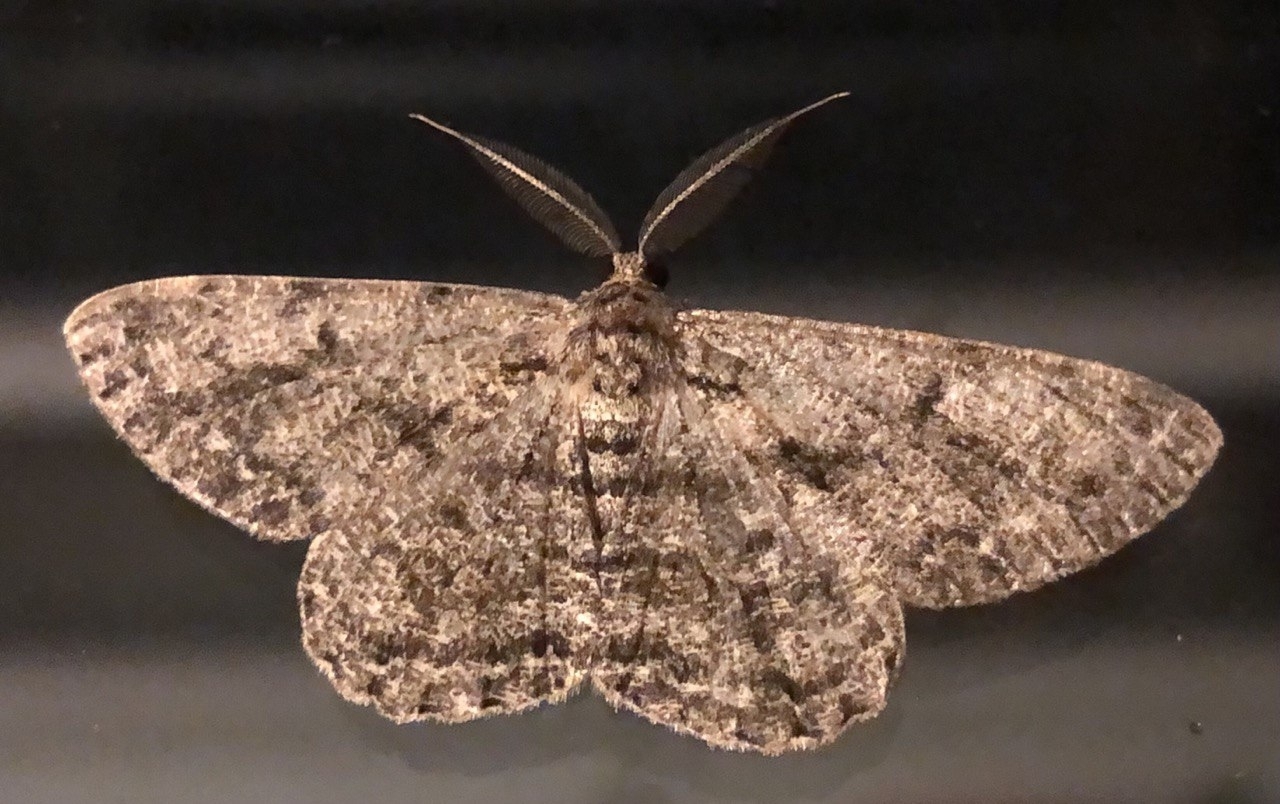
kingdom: Animalia
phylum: Arthropoda
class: Insecta
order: Lepidoptera
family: Geometridae
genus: Hypomecis
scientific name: Hypomecis roboraria
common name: Great oak beauty
